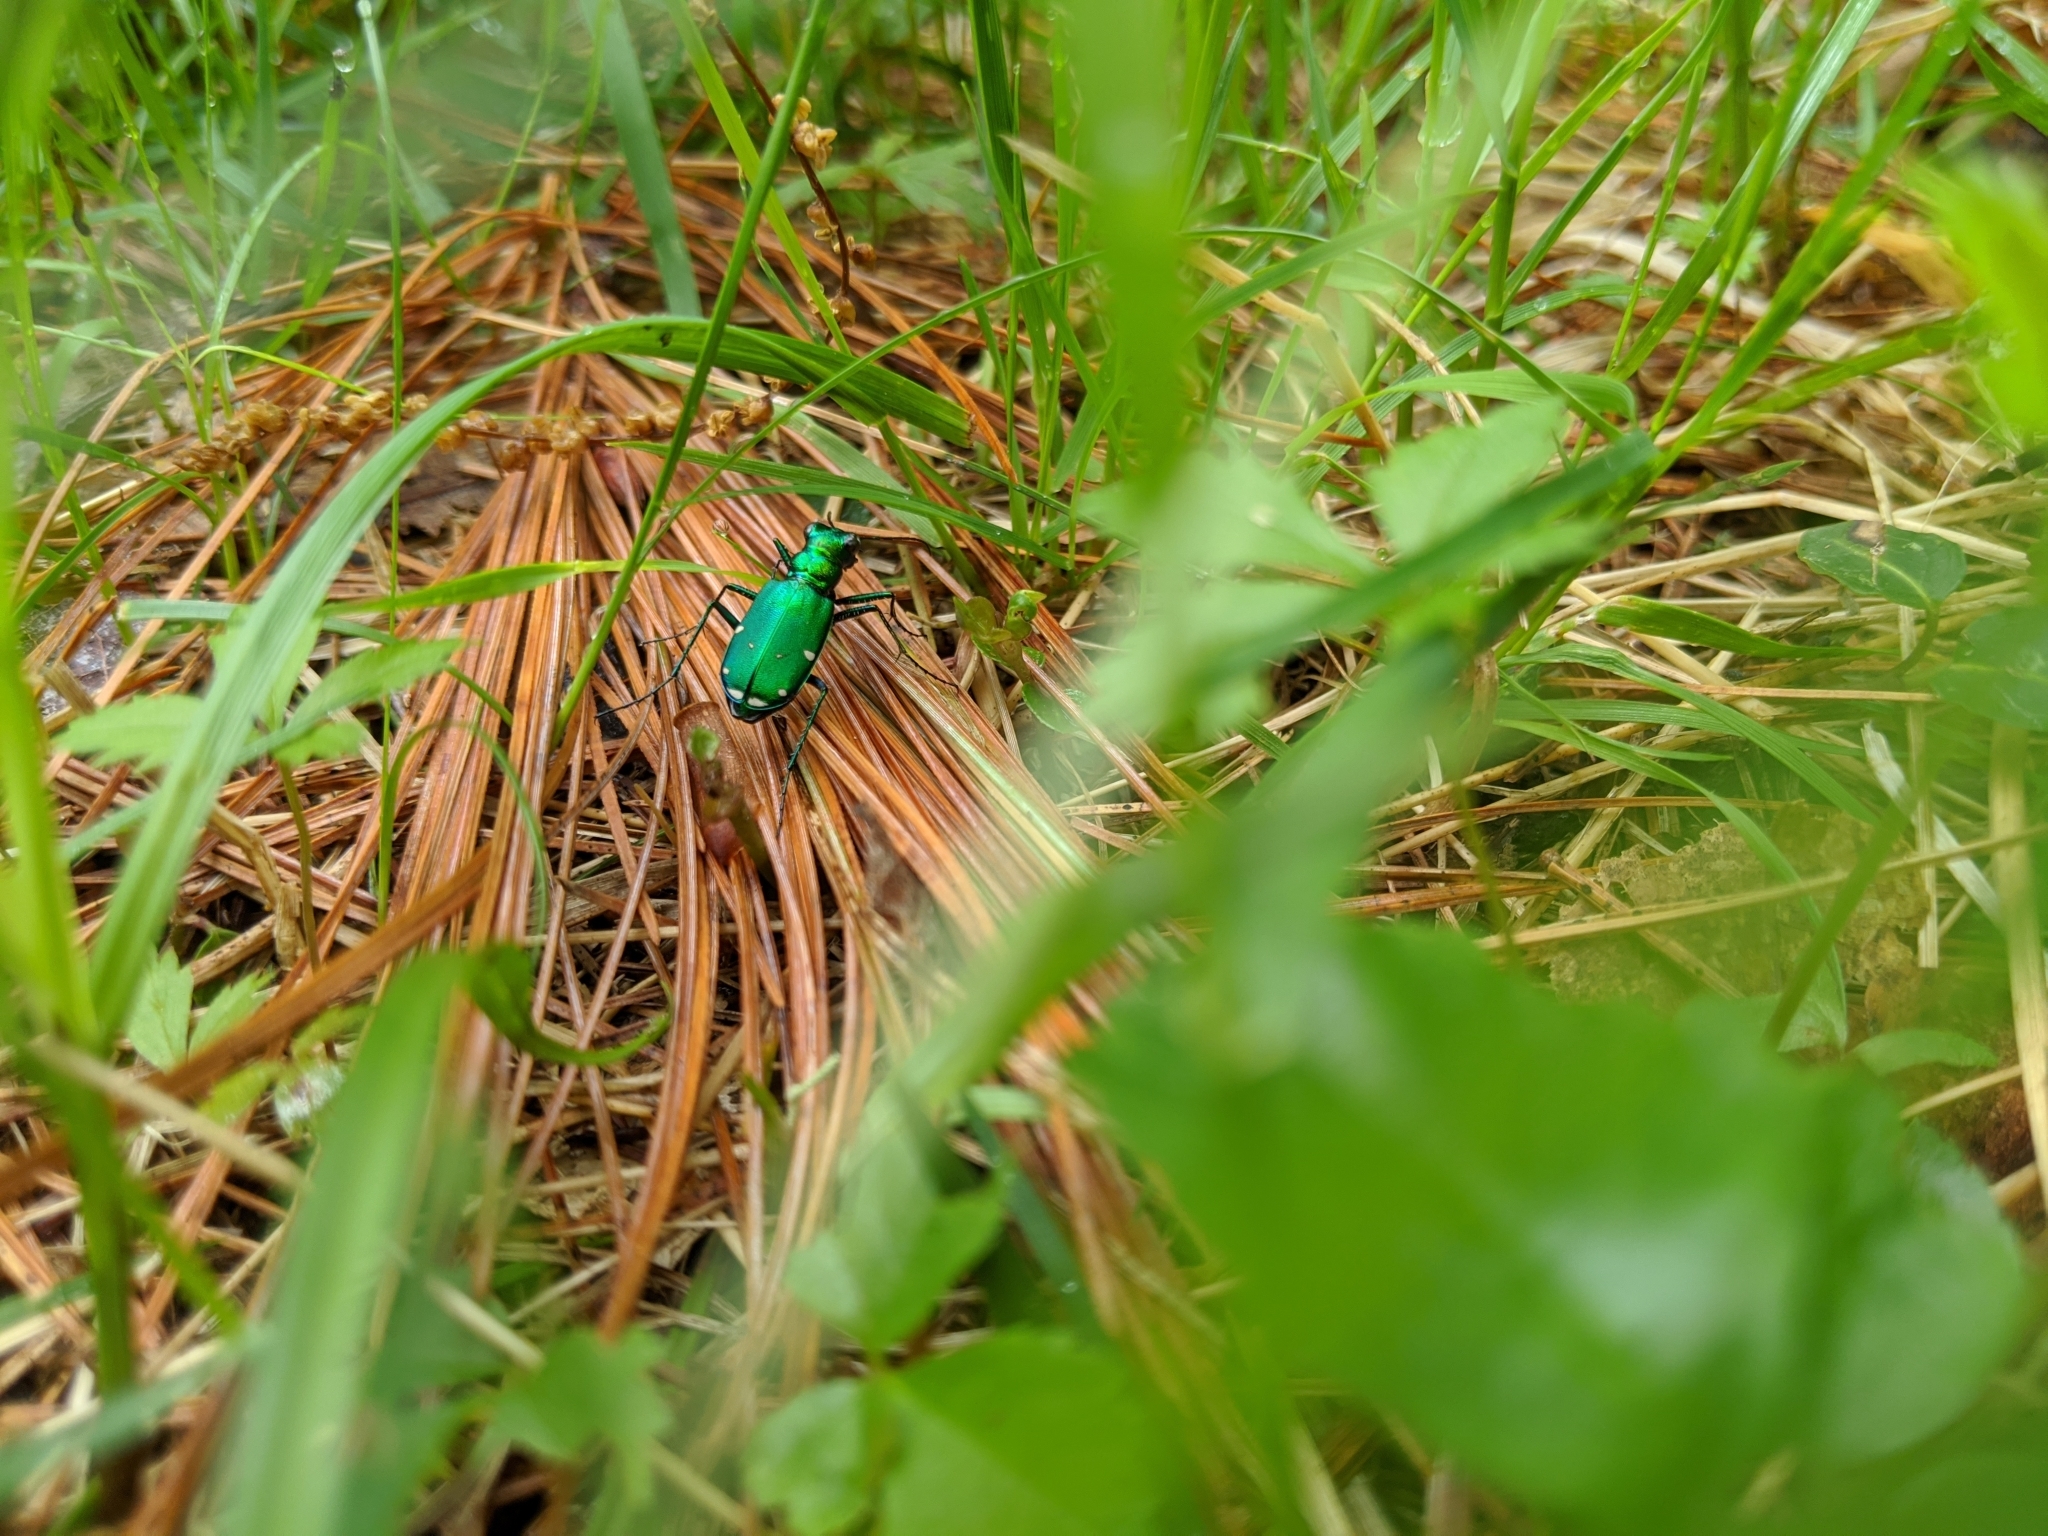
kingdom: Animalia
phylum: Arthropoda
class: Insecta
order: Coleoptera
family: Carabidae
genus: Cicindela
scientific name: Cicindela sexguttata
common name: Six-spotted tiger beetle
